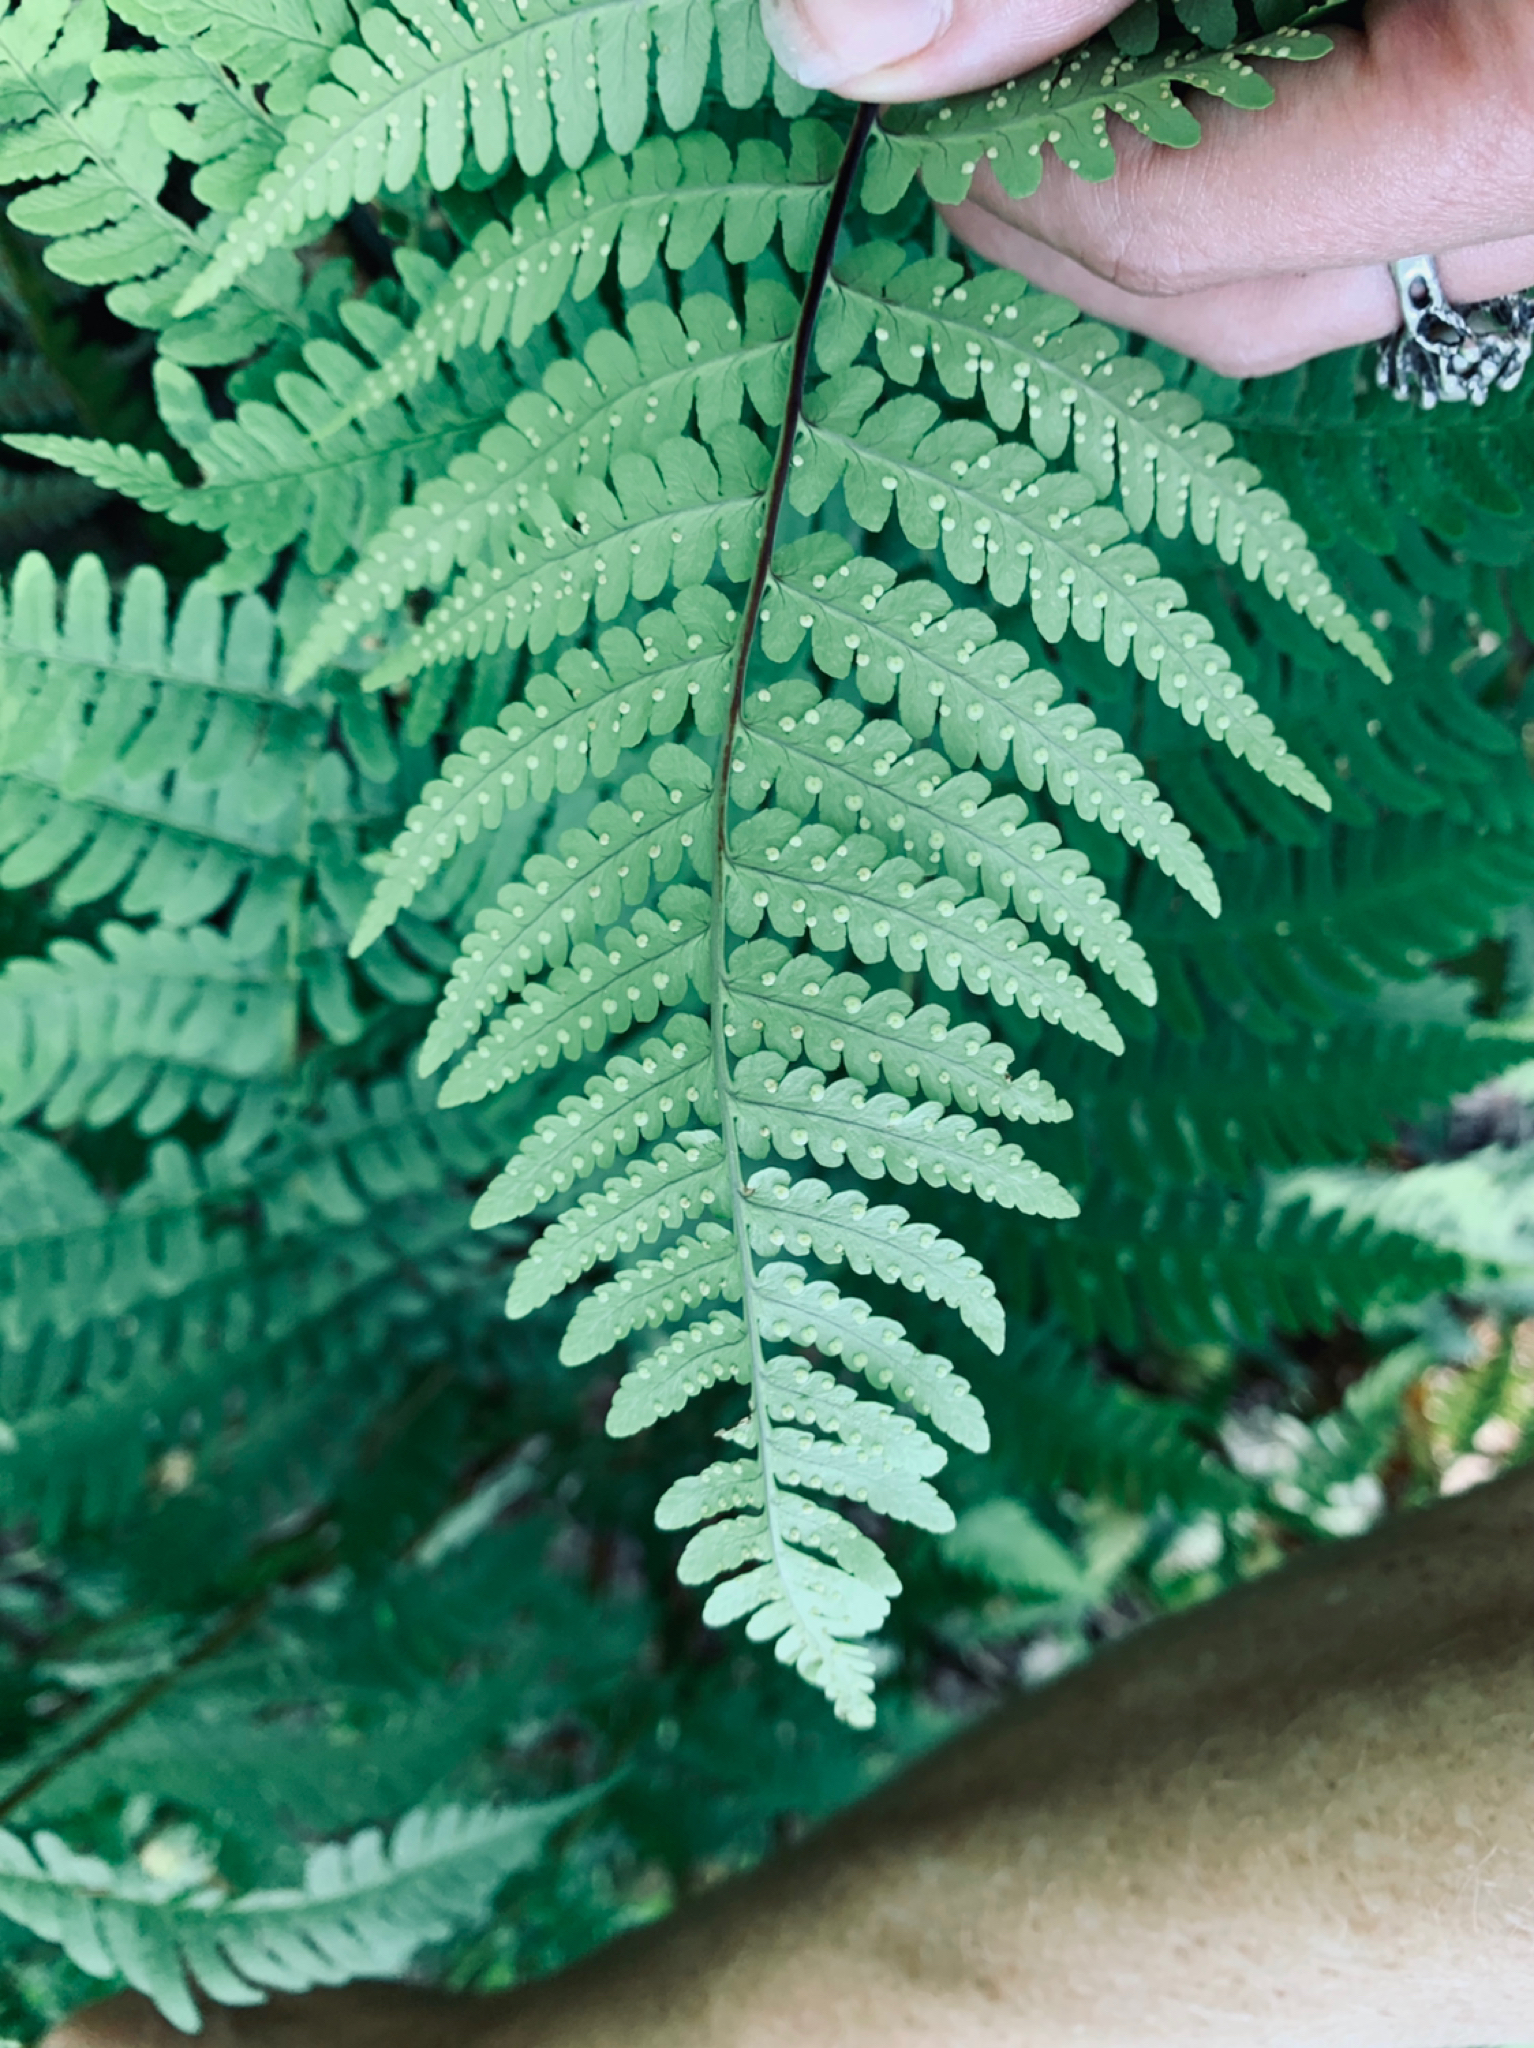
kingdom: Plantae
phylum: Tracheophyta
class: Polypodiopsida
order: Polypodiales
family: Dryopteridaceae
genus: Dryopteris
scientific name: Dryopteris marginalis
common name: Marginal wood fern
